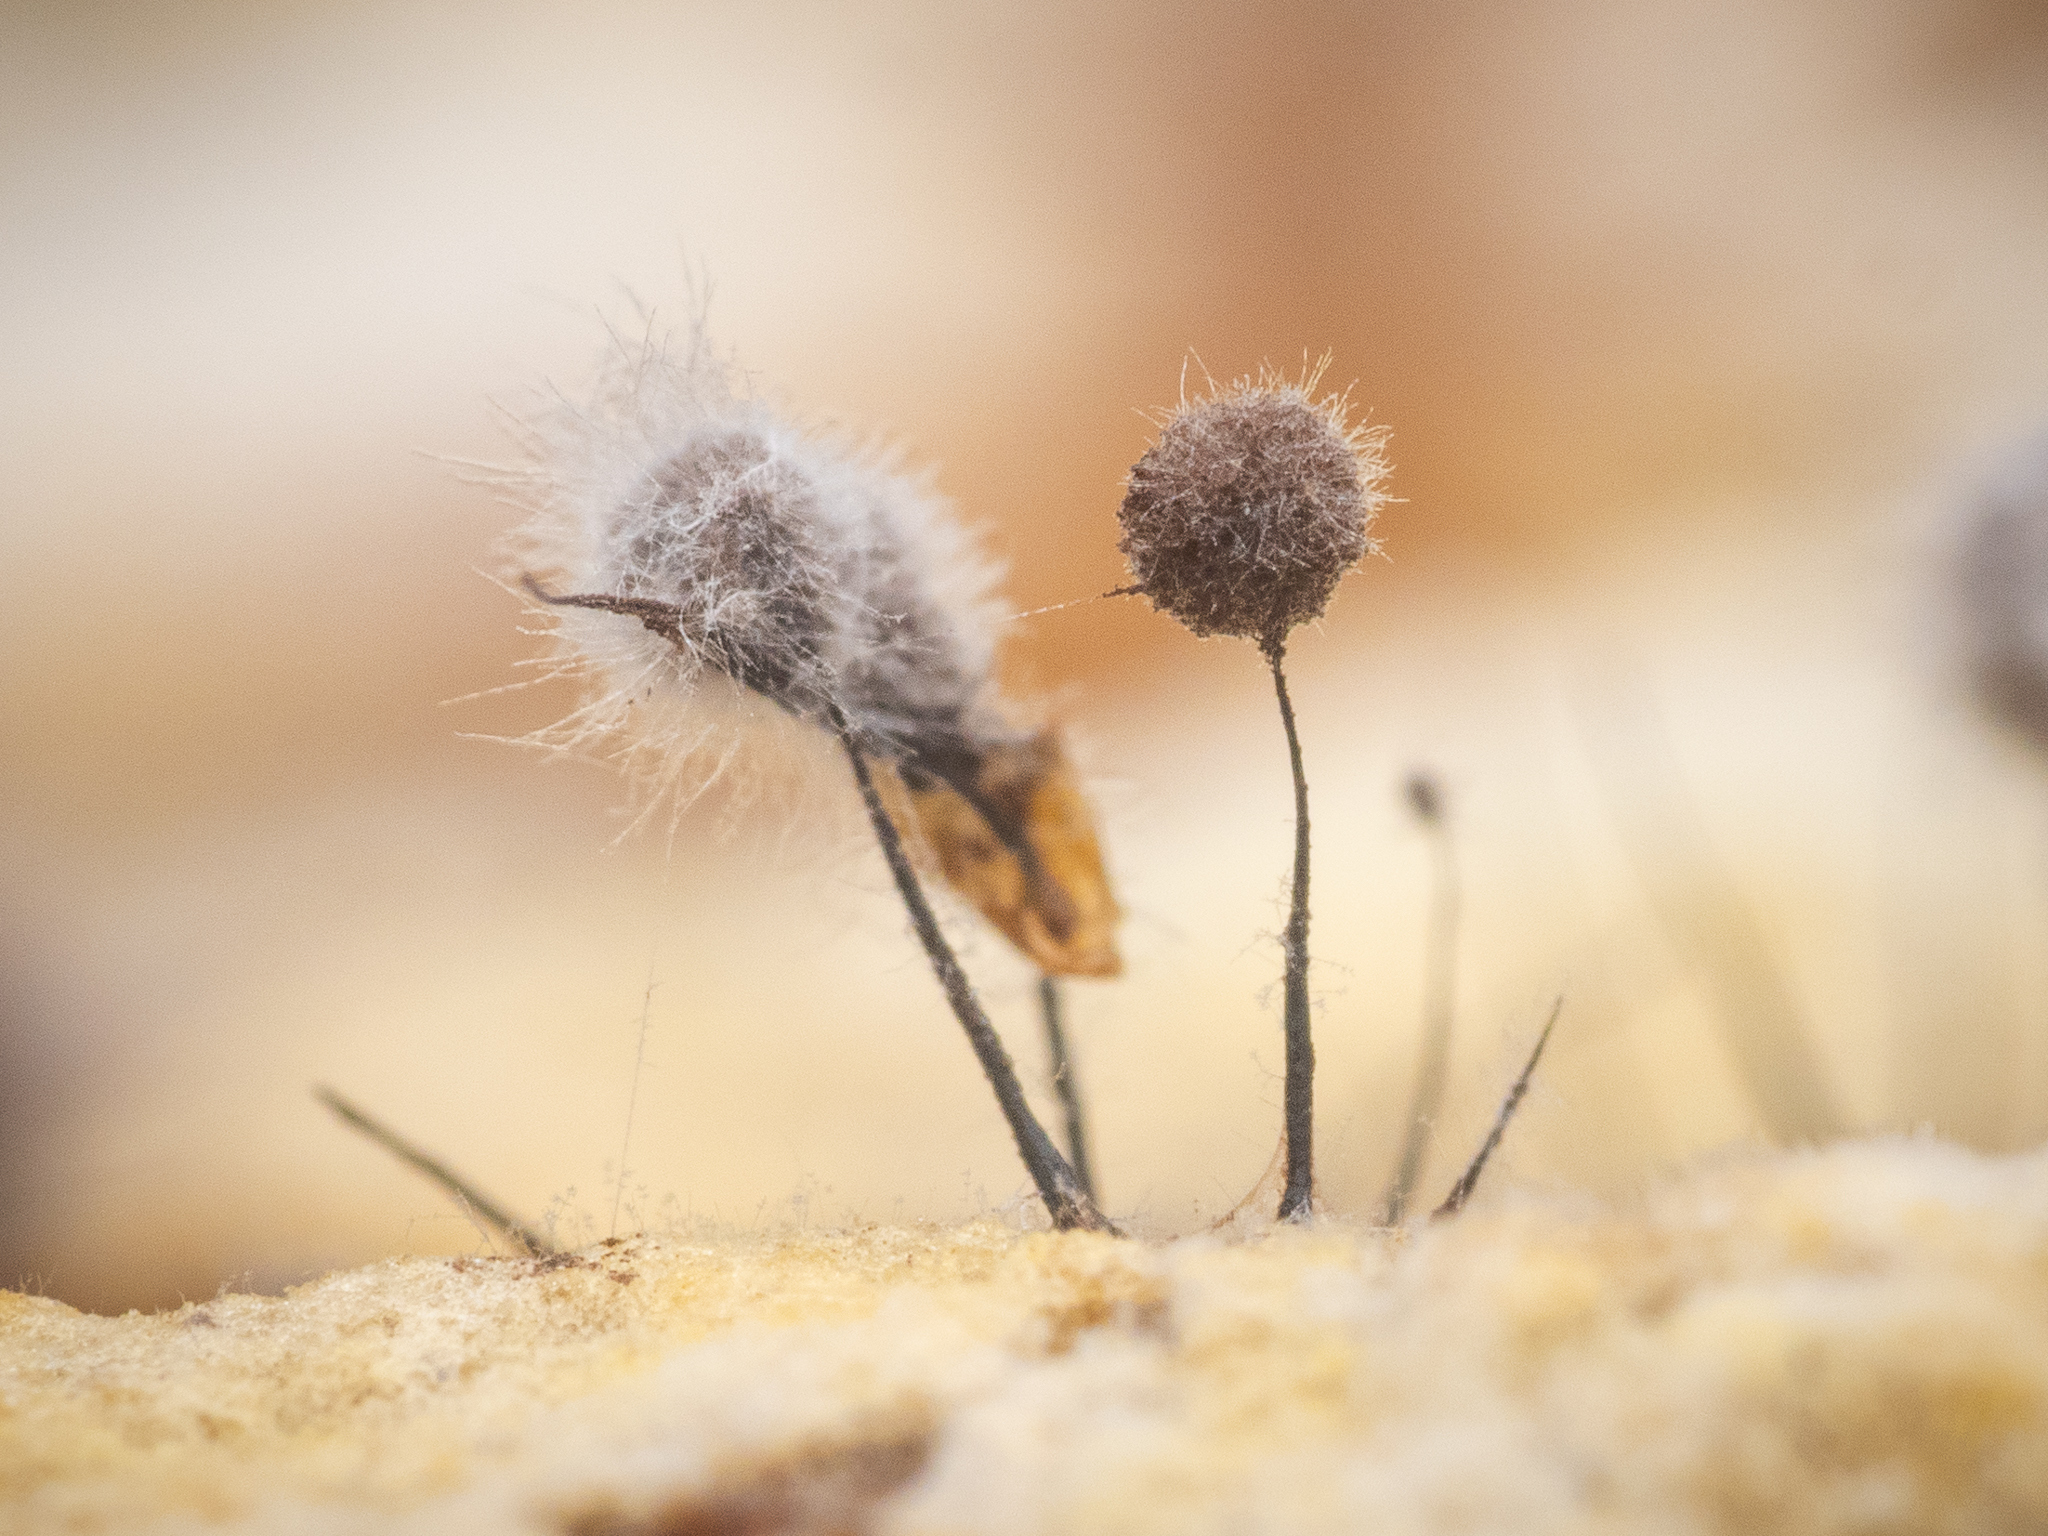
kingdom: Protozoa
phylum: Mycetozoa
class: Myxomycetes
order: Stemonitidales
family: Stemonitidaceae
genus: Comatricha
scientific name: Comatricha nigra
